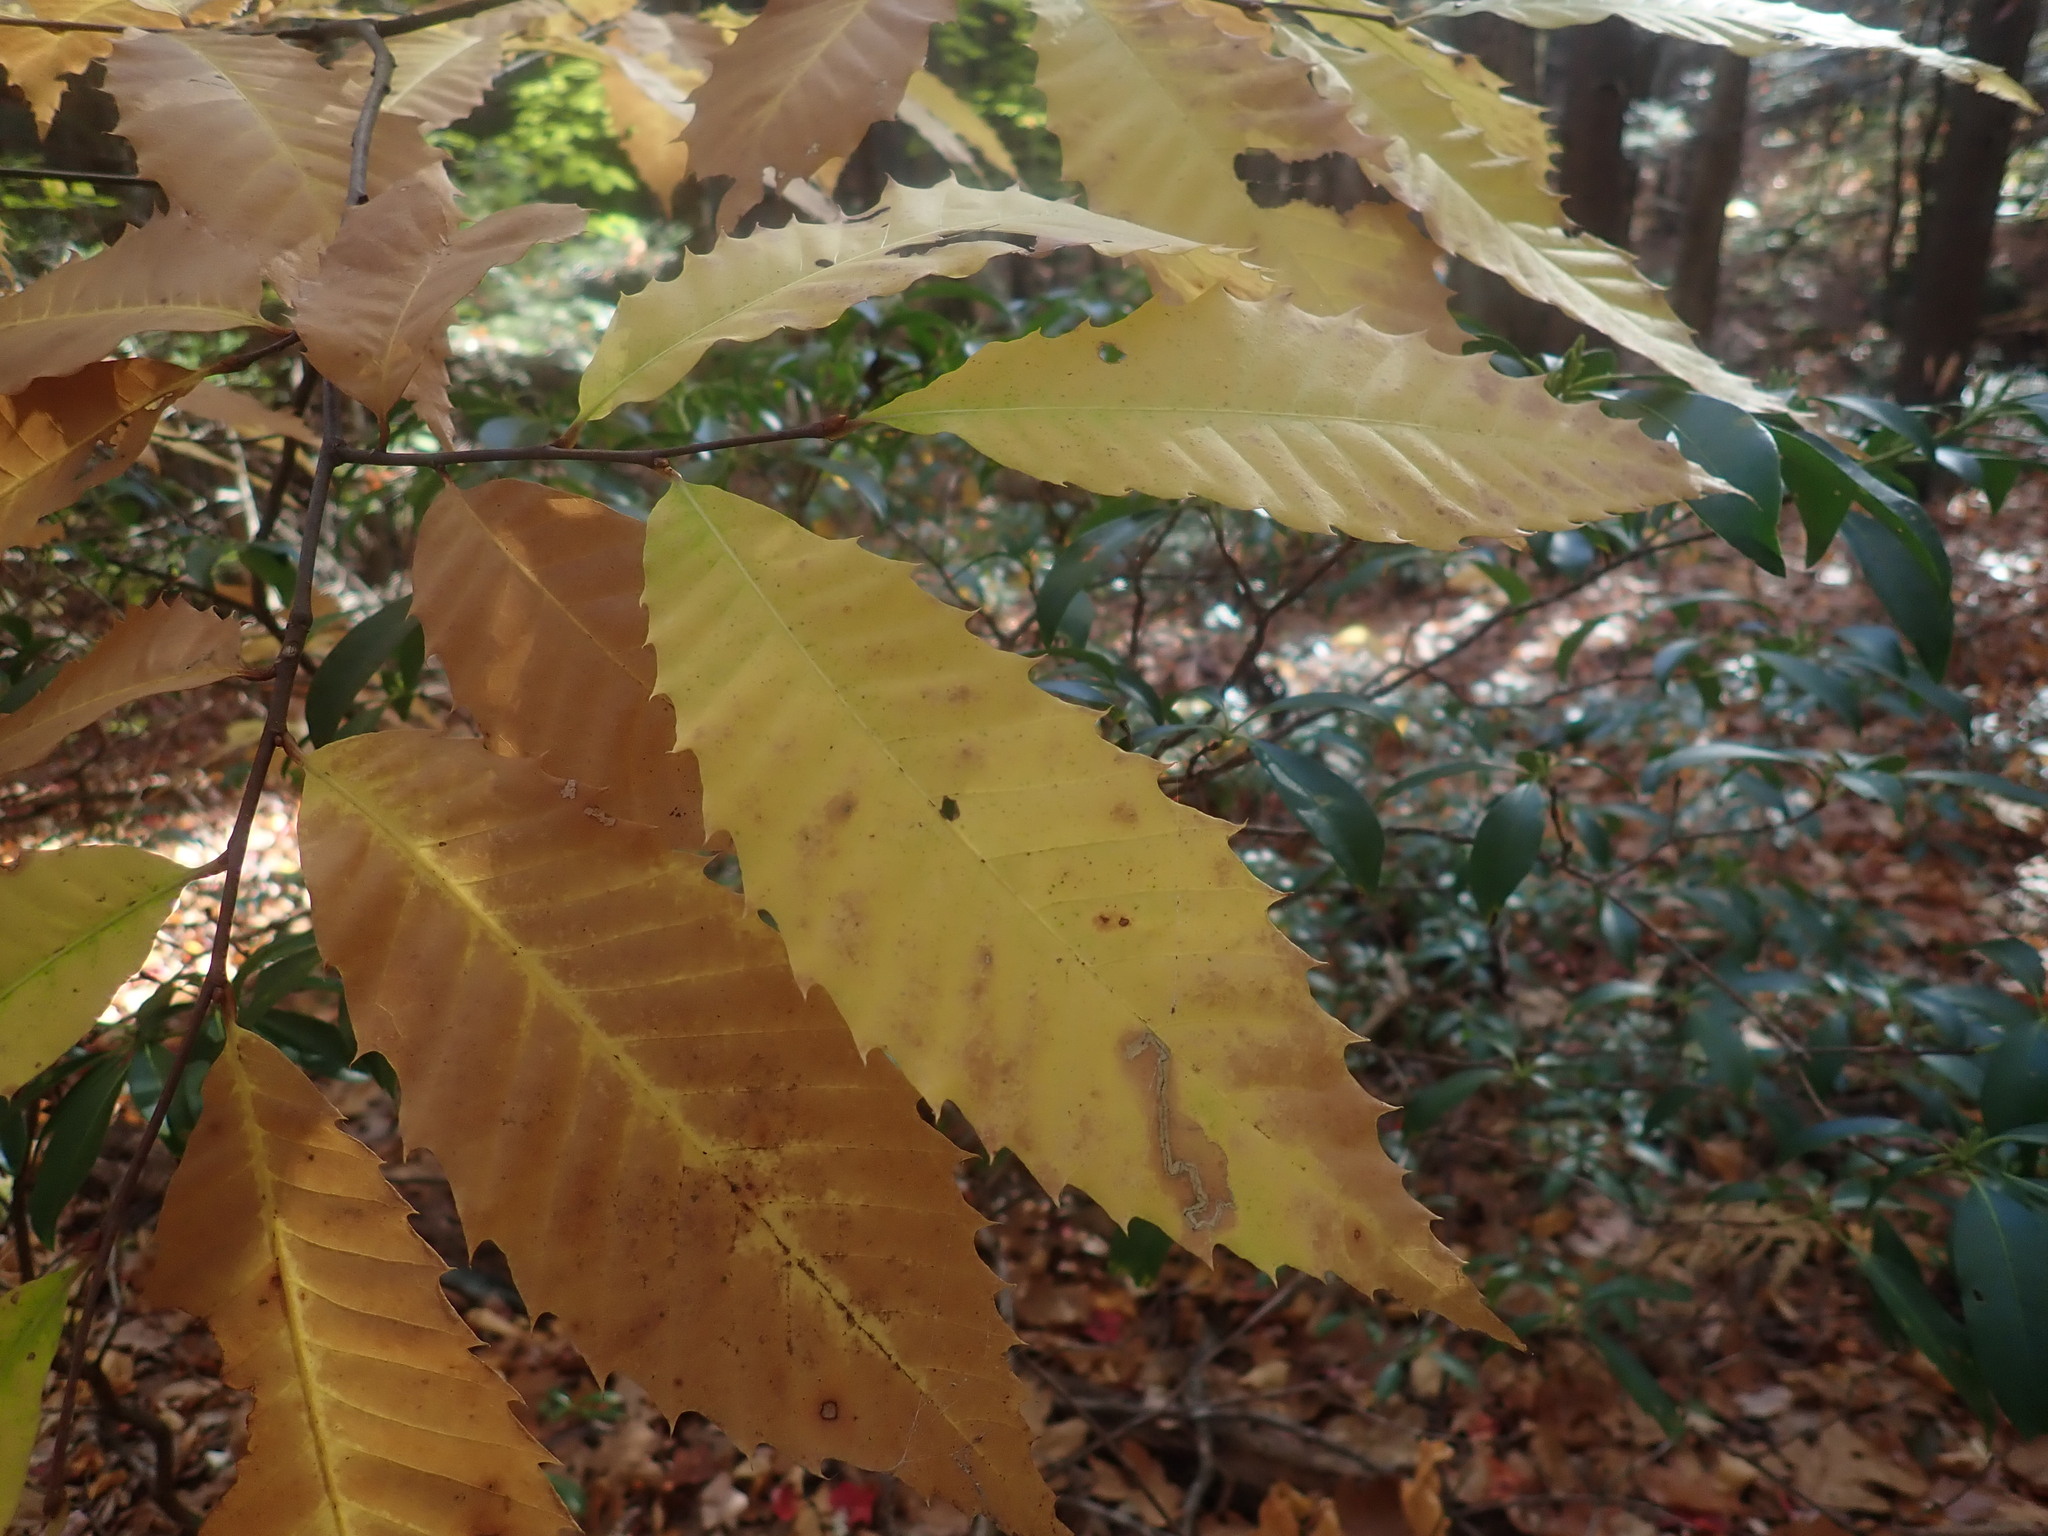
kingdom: Plantae
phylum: Tracheophyta
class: Magnoliopsida
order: Fagales
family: Fagaceae
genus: Castanea
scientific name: Castanea dentata
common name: American chestnut
